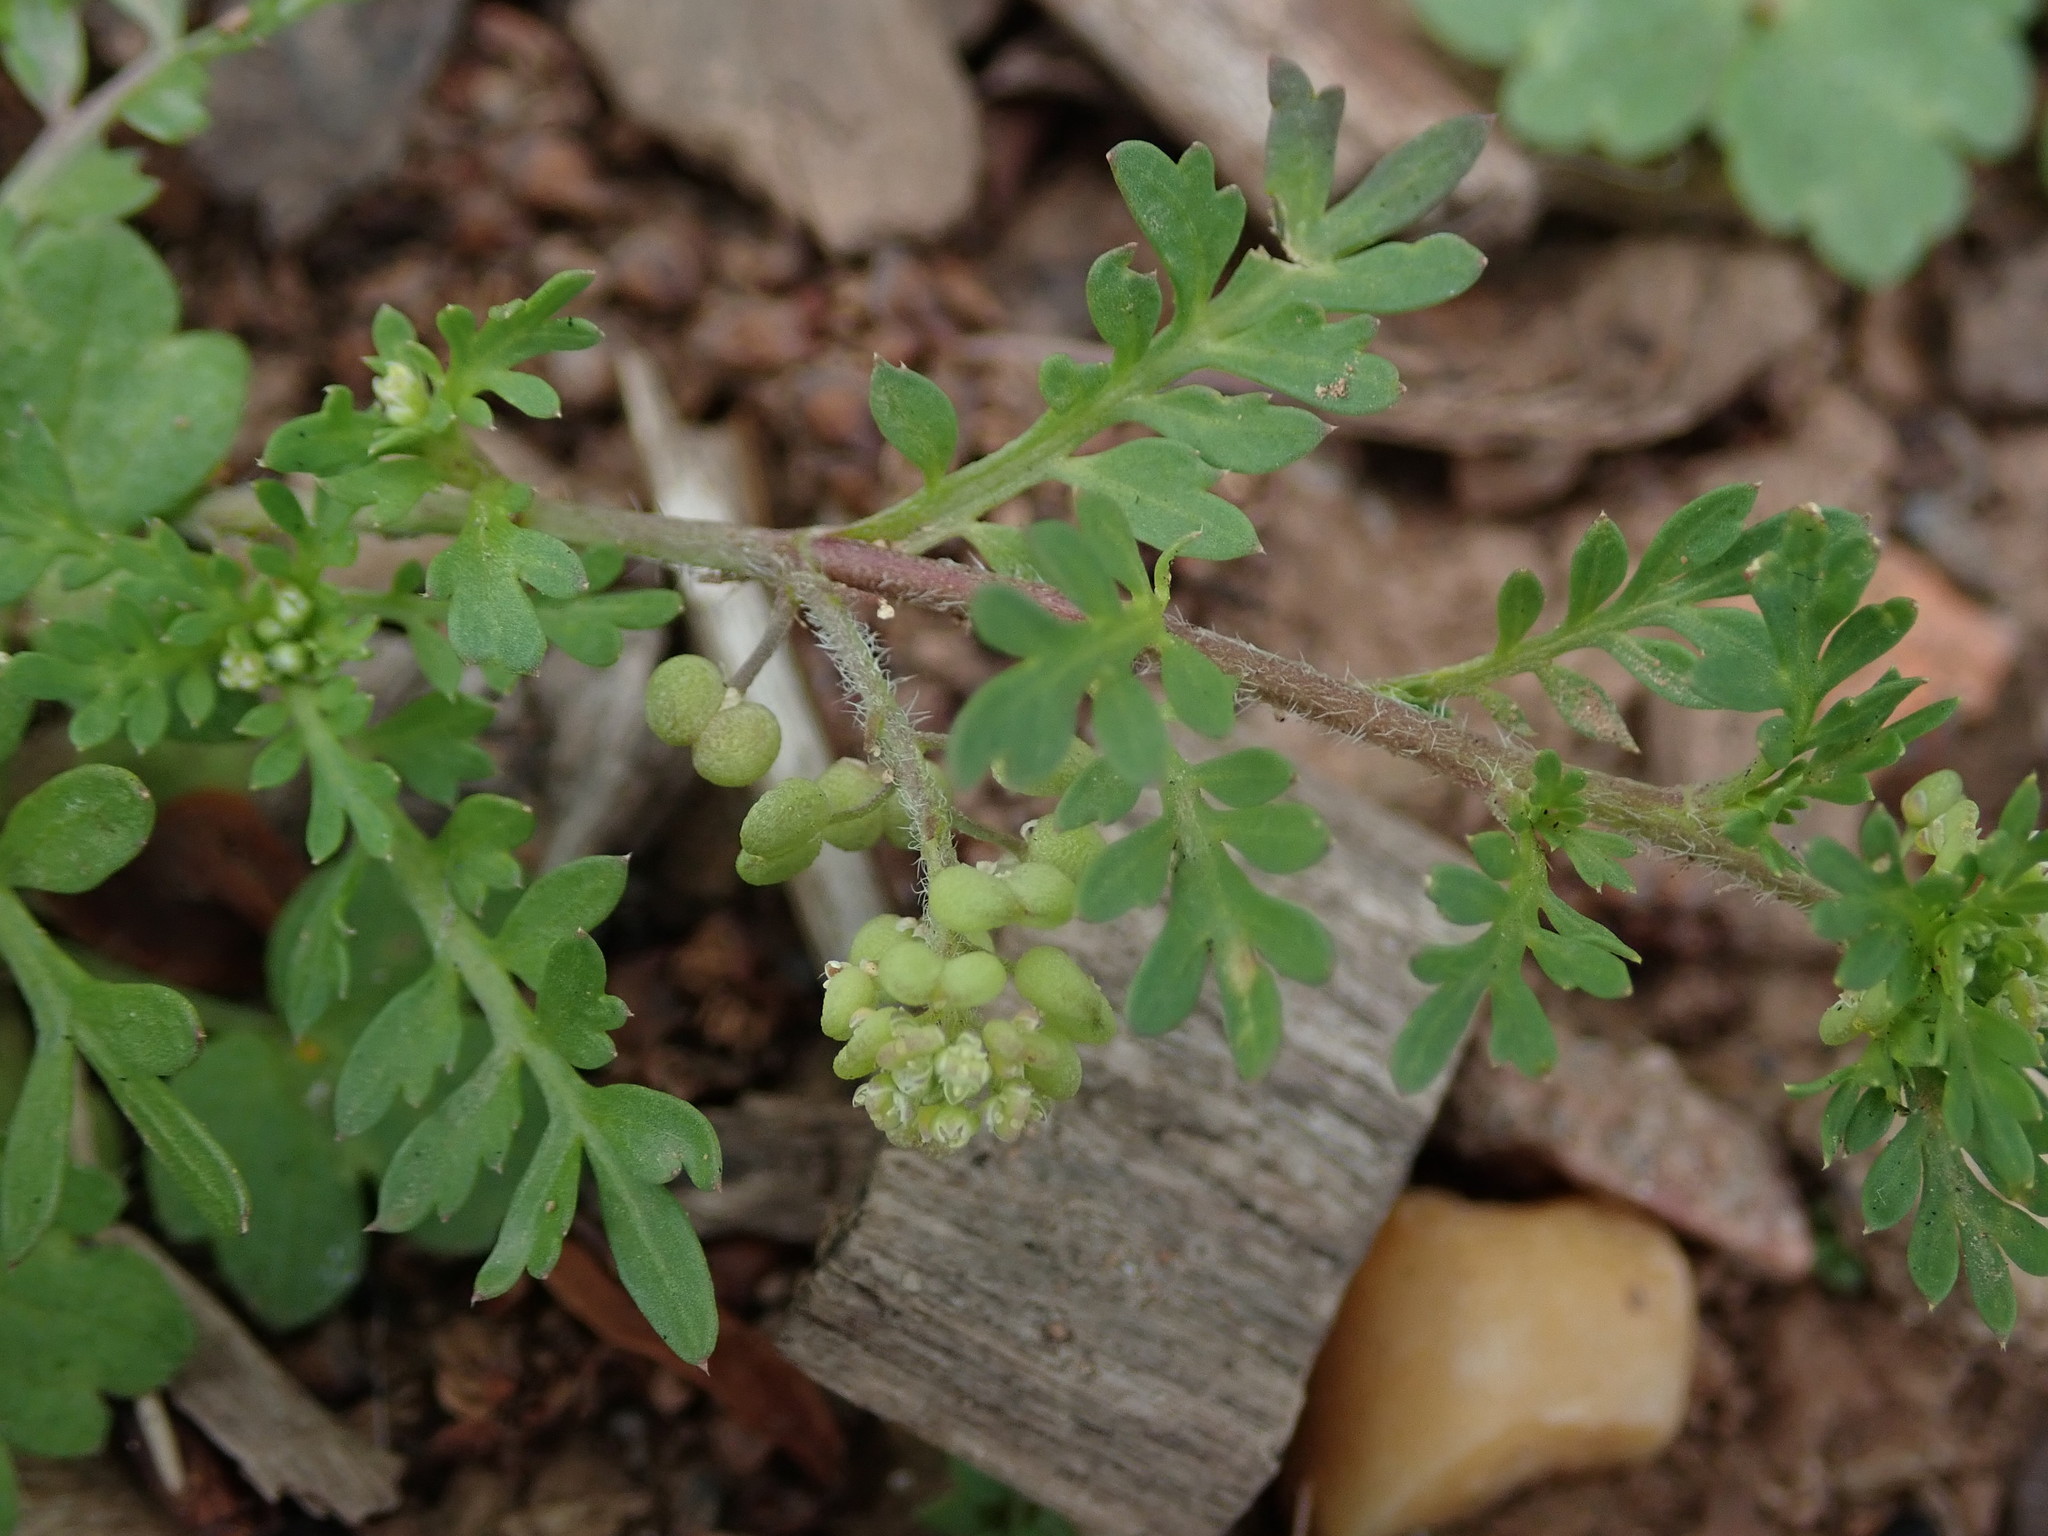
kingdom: Plantae
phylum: Tracheophyta
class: Magnoliopsida
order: Brassicales
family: Brassicaceae
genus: Lepidium
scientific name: Lepidium didymum
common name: Lesser swinecress
